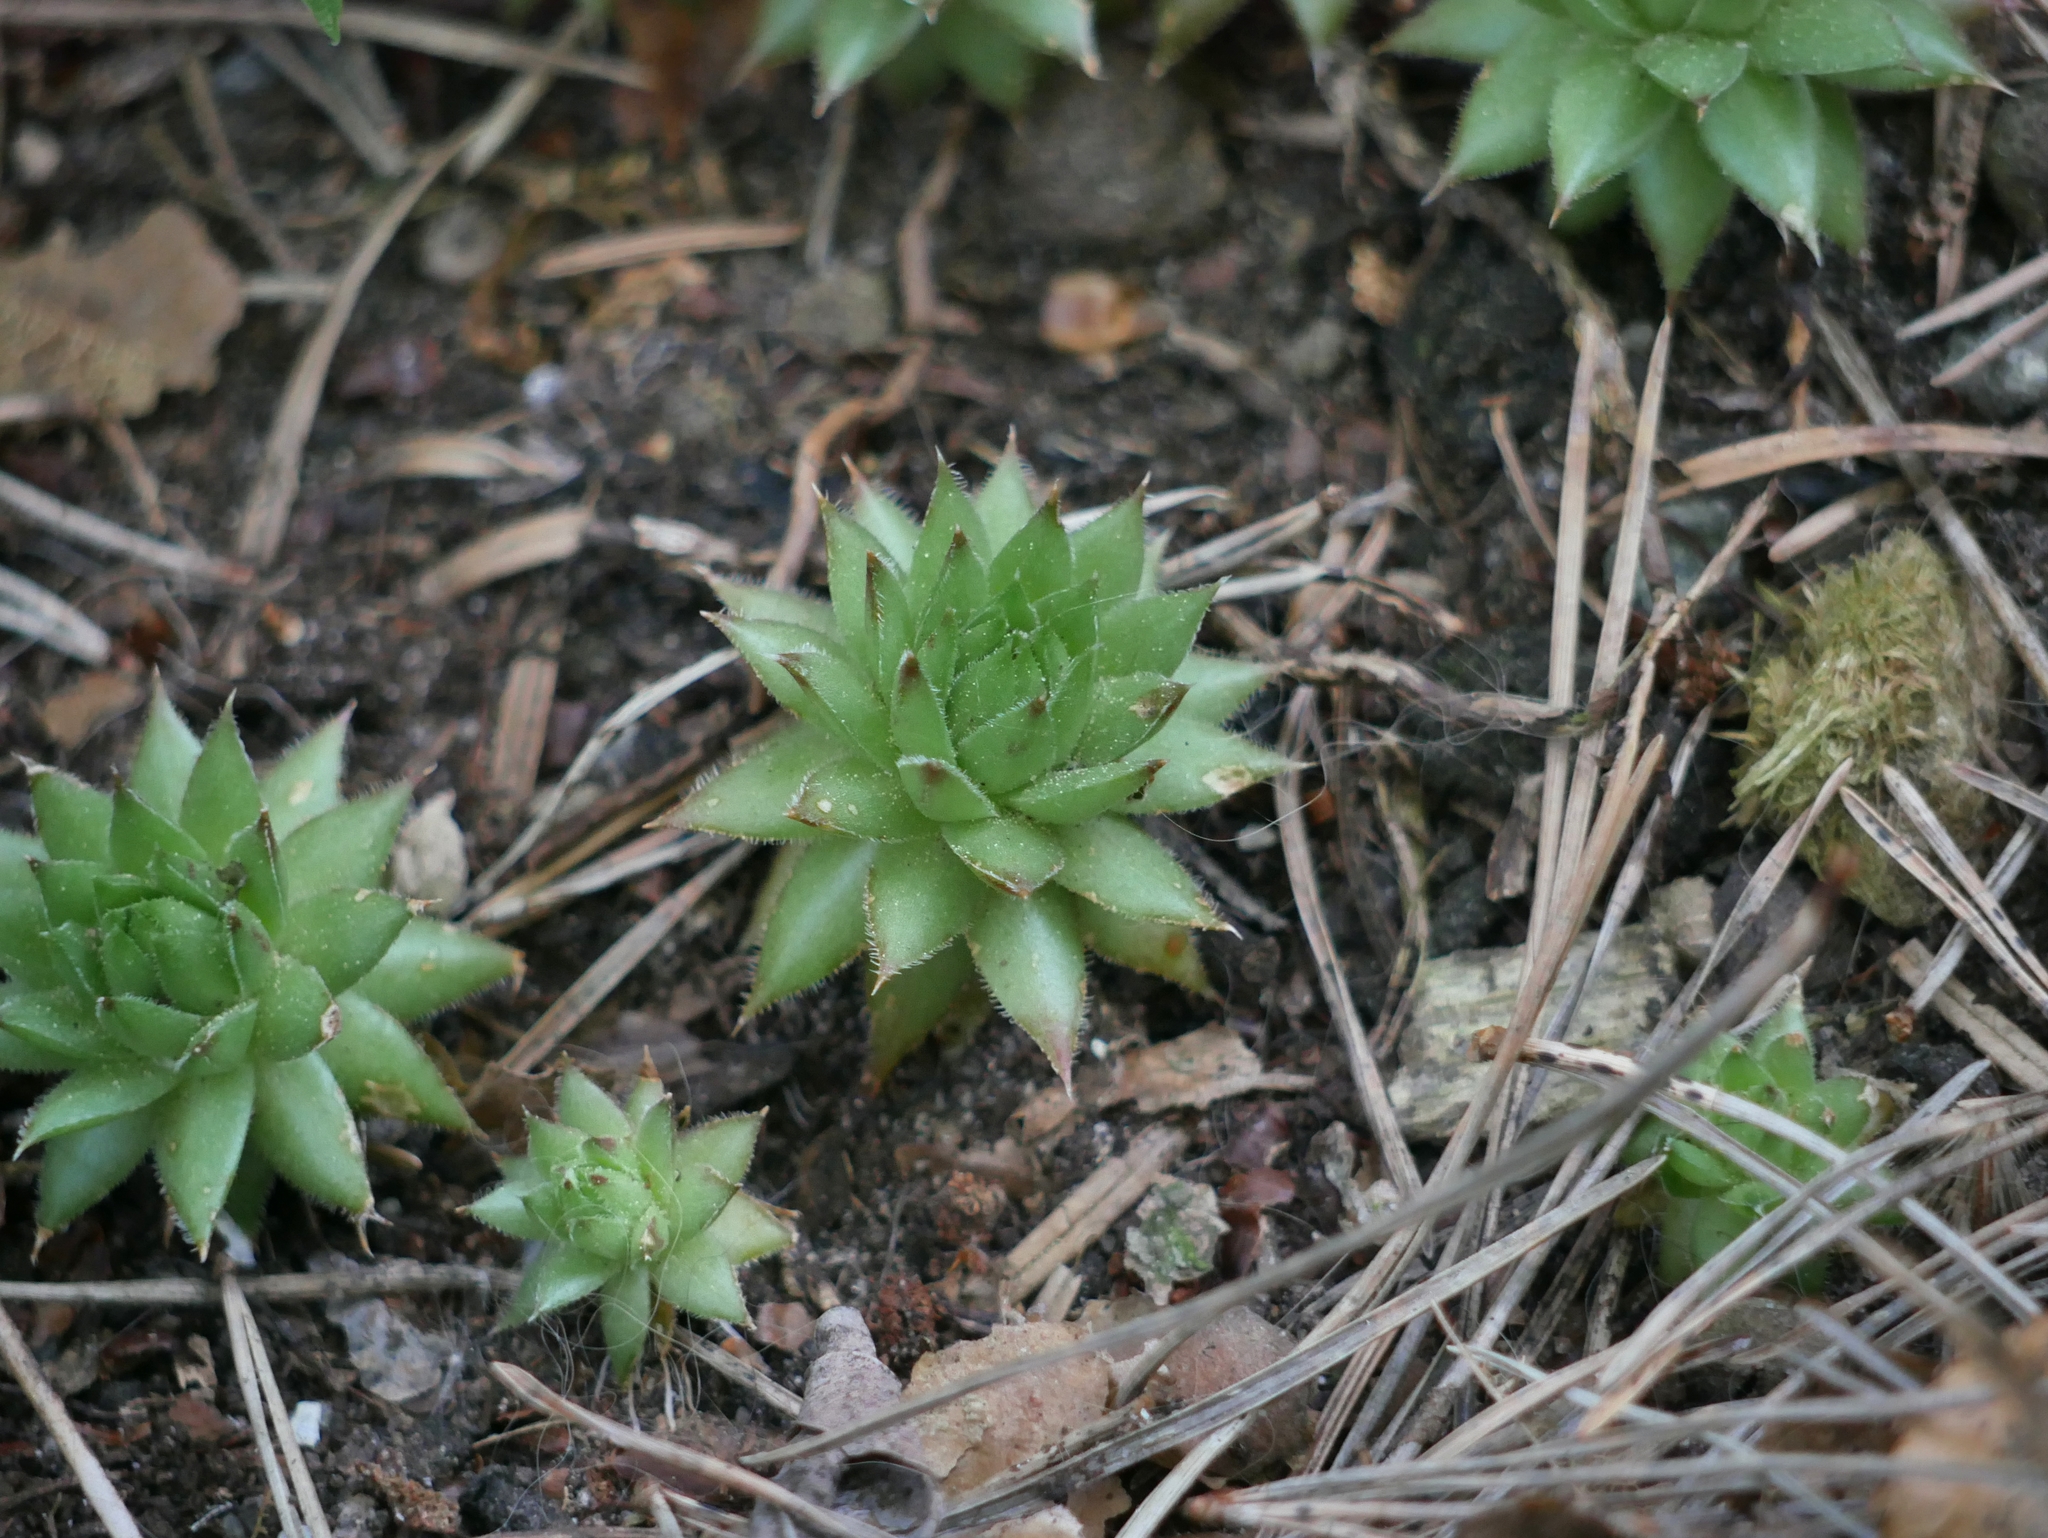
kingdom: Plantae
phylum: Tracheophyta
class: Magnoliopsida
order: Saxifragales
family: Crassulaceae
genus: Sempervivum
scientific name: Sempervivum globiferum
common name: Rolling hen-and-chicks
